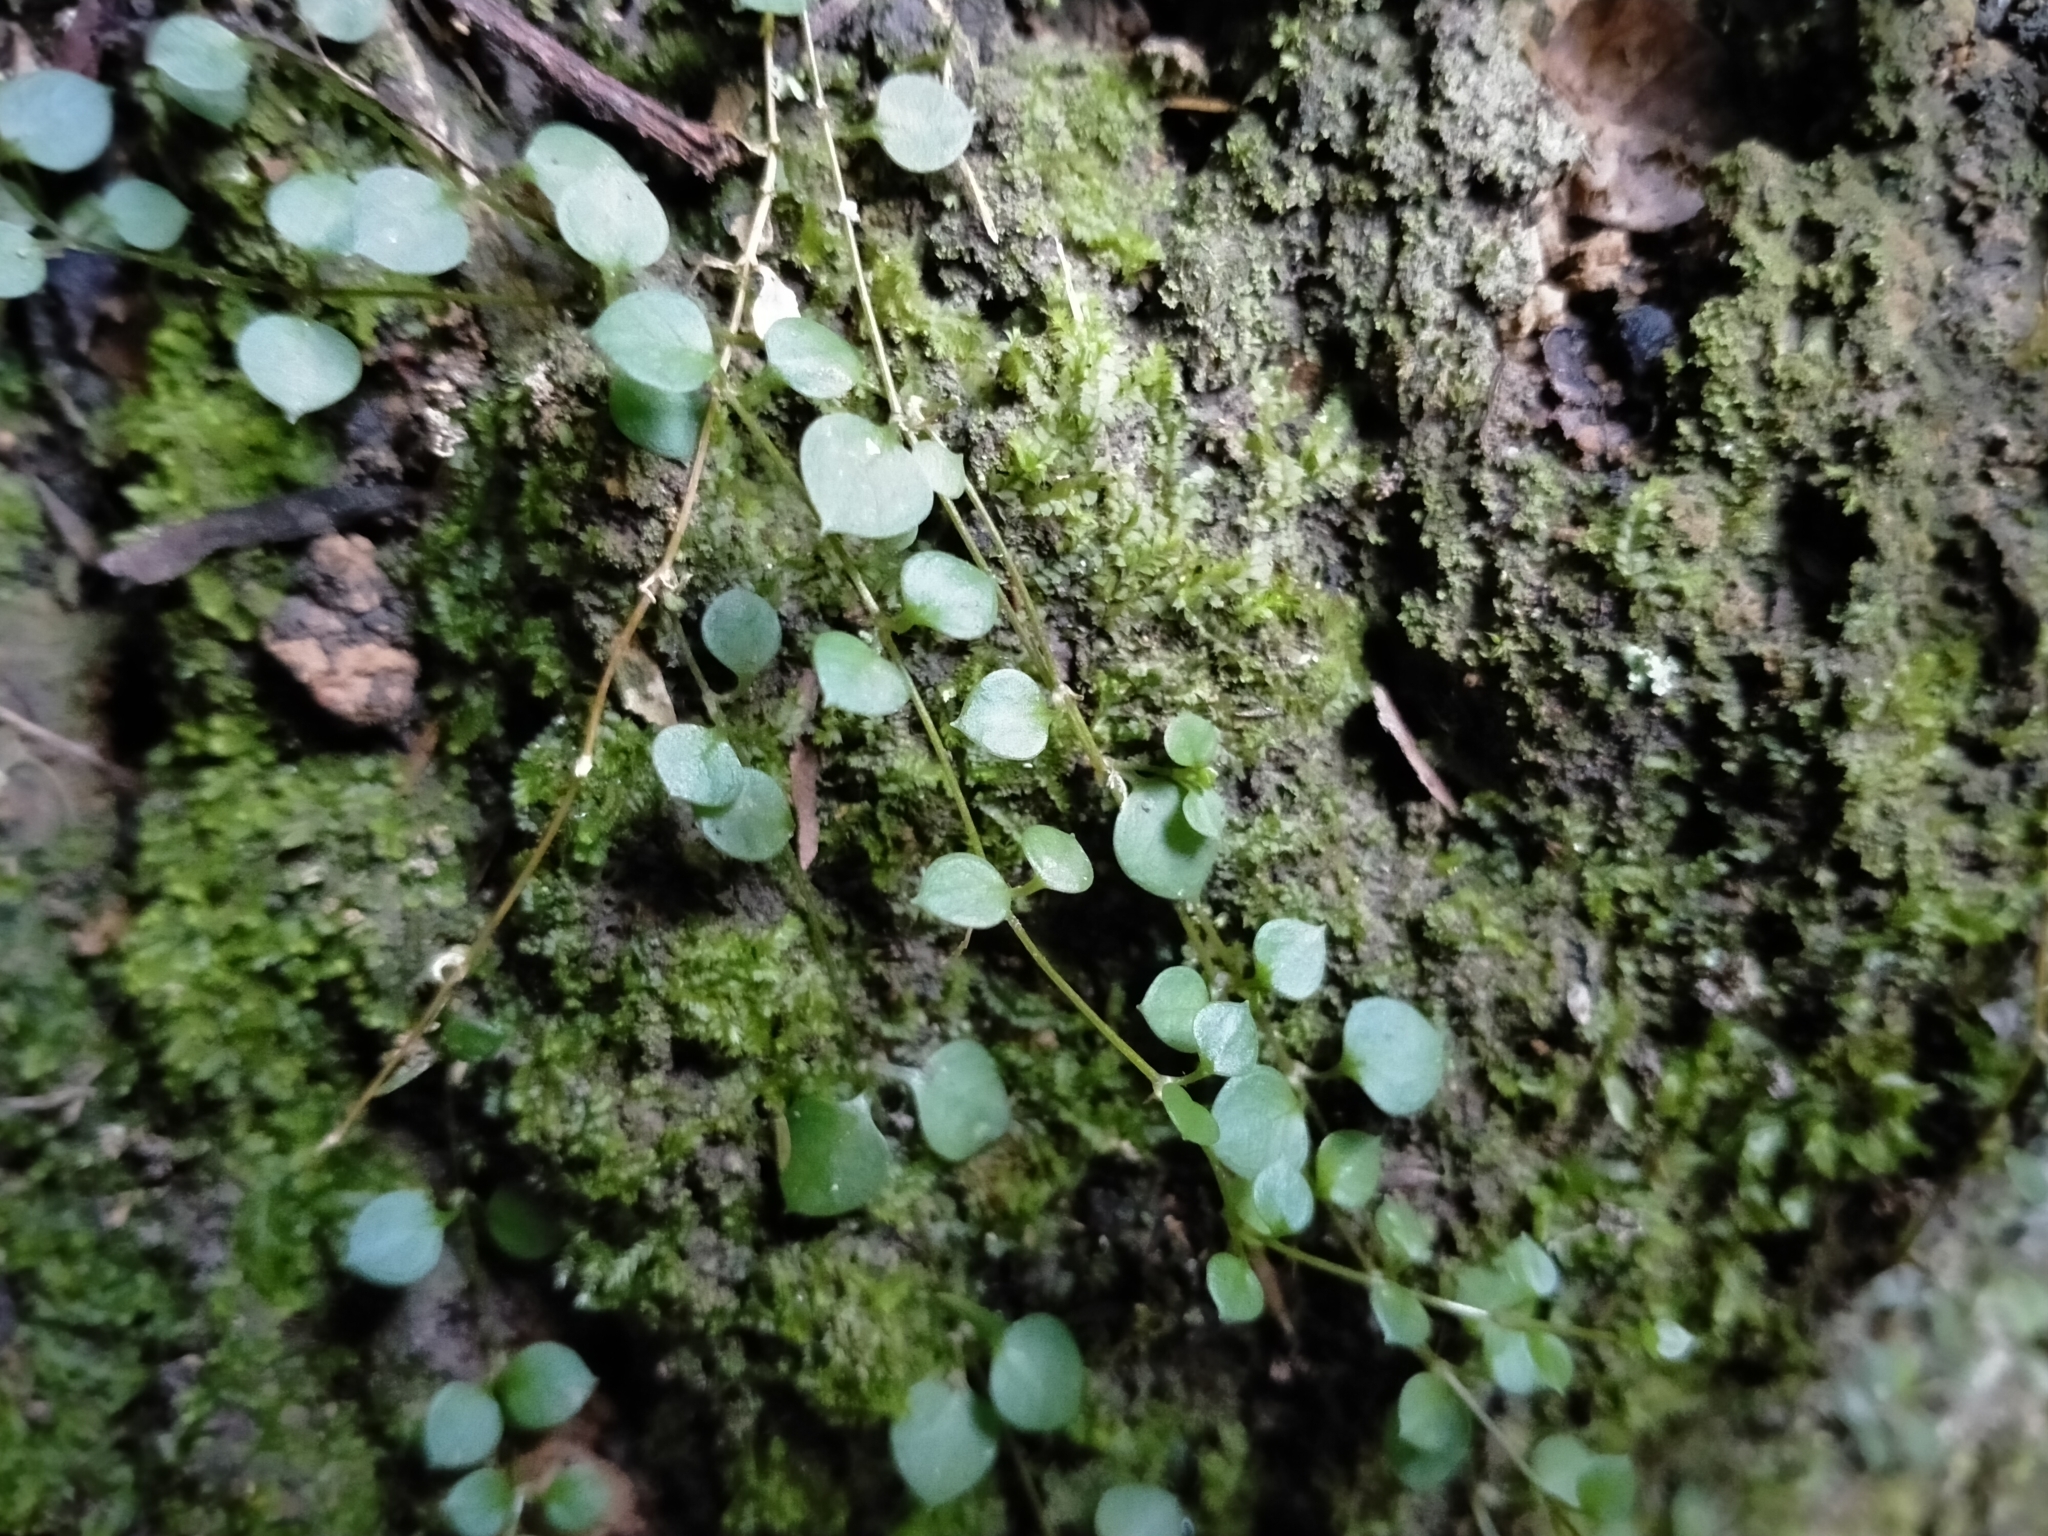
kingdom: Plantae
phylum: Tracheophyta
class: Magnoliopsida
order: Caryophyllales
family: Caryophyllaceae
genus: Stellaria
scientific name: Stellaria parviflora
